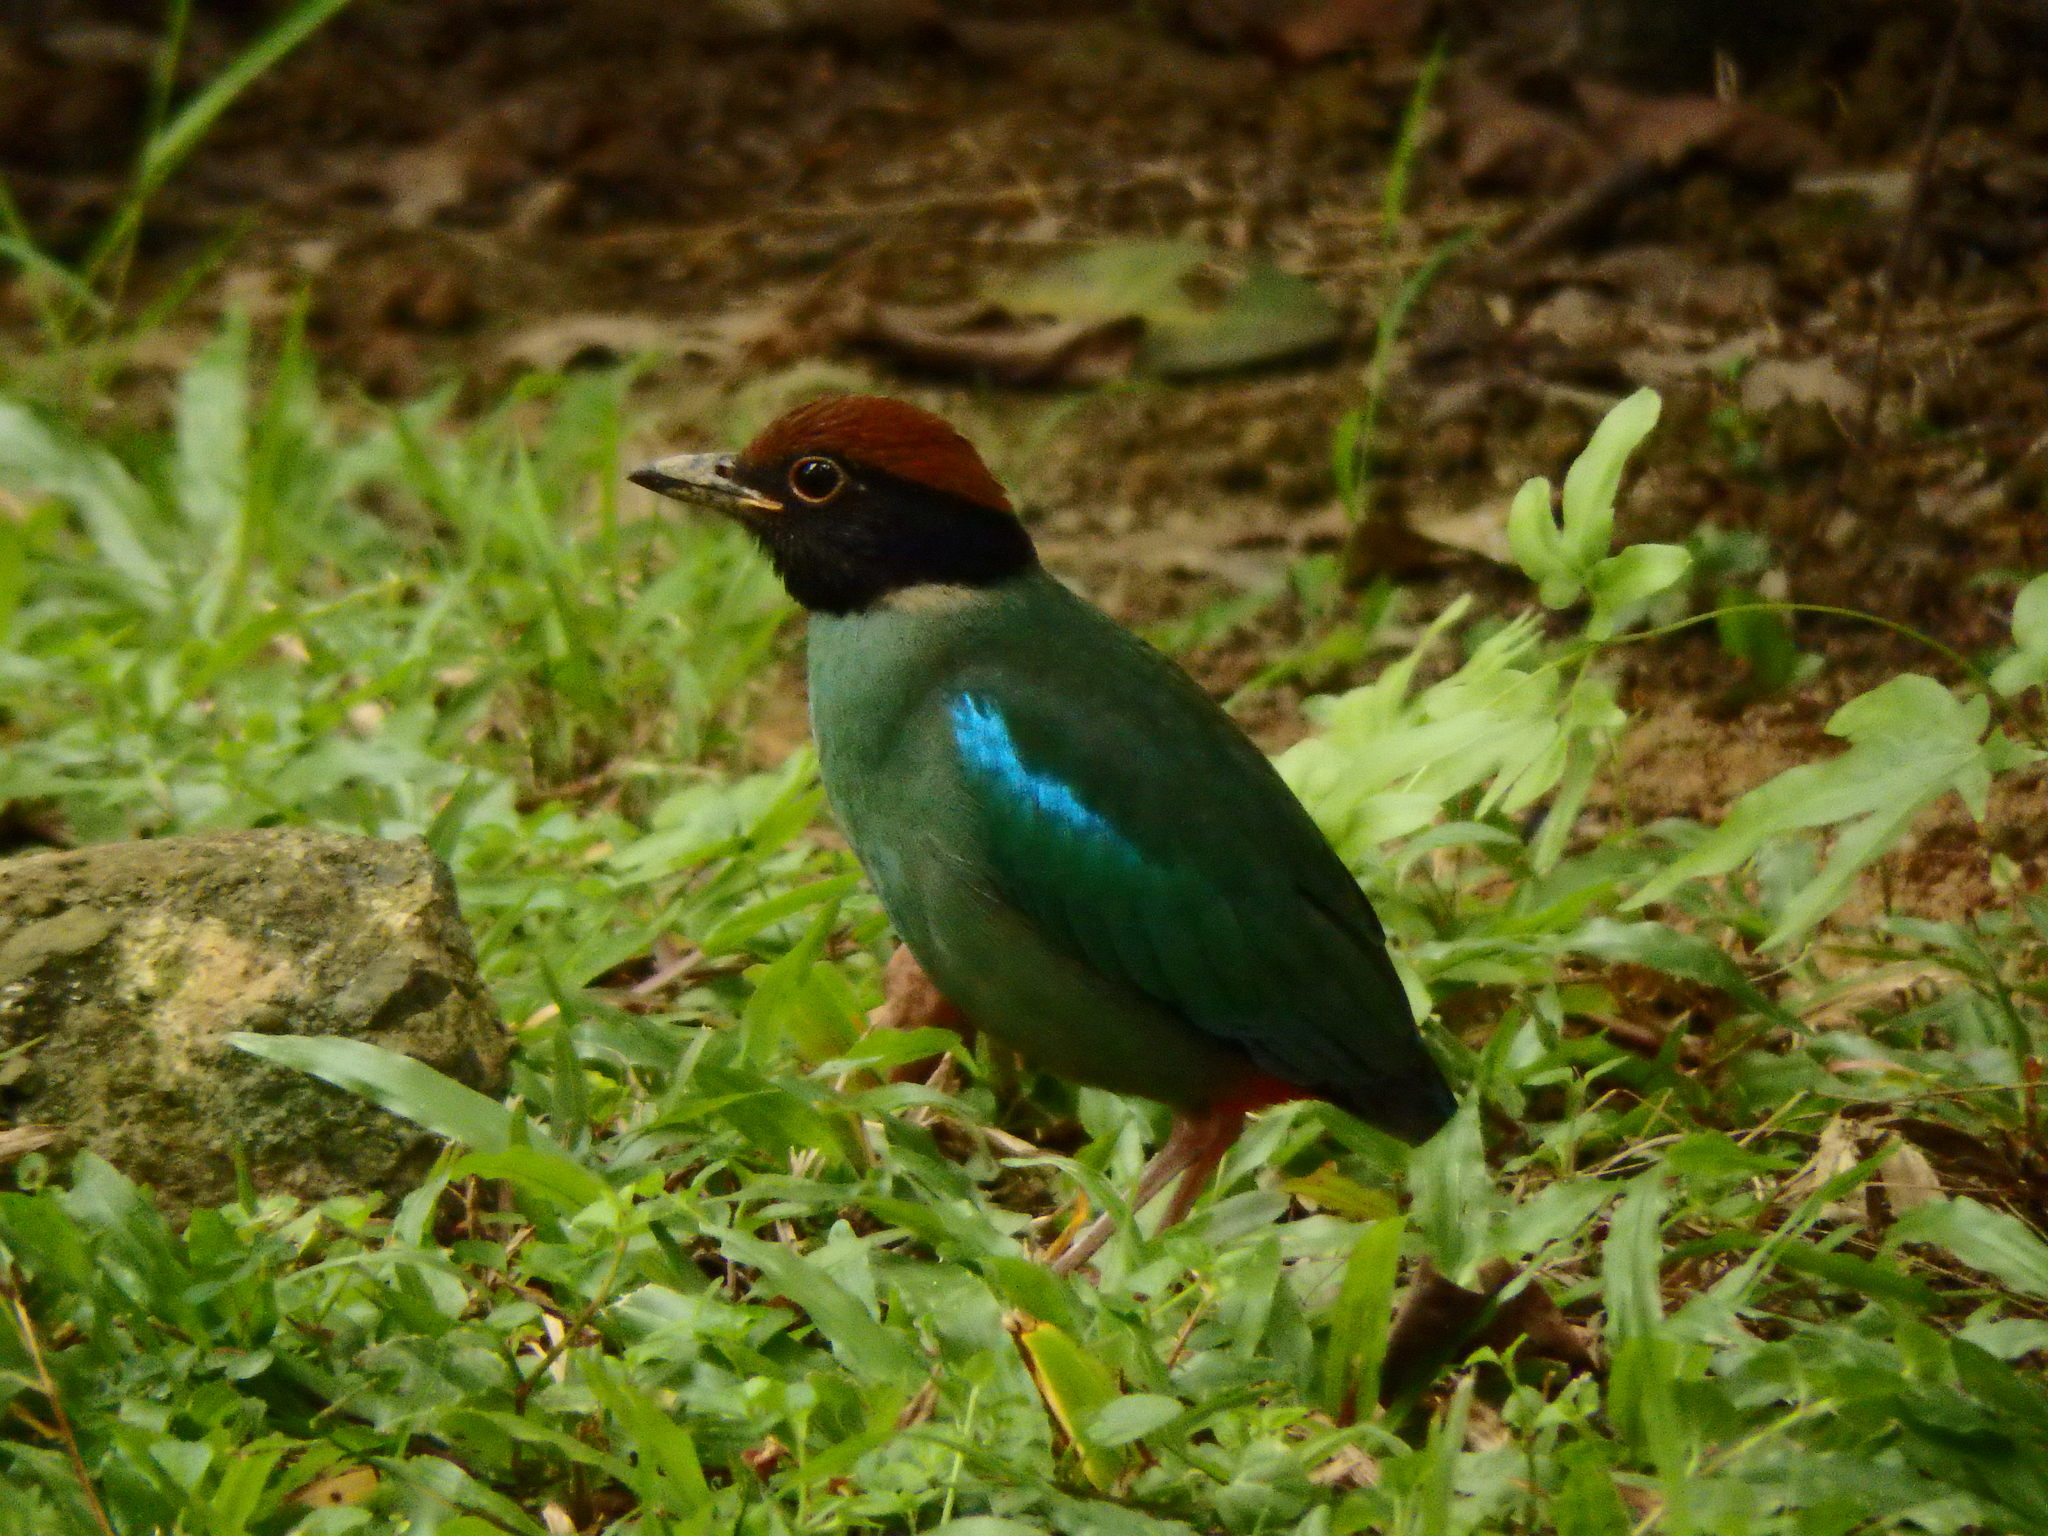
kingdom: Animalia
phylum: Chordata
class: Aves
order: Passeriformes
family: Pittidae
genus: Pitta
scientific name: Pitta sordida
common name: Hooded pitta
